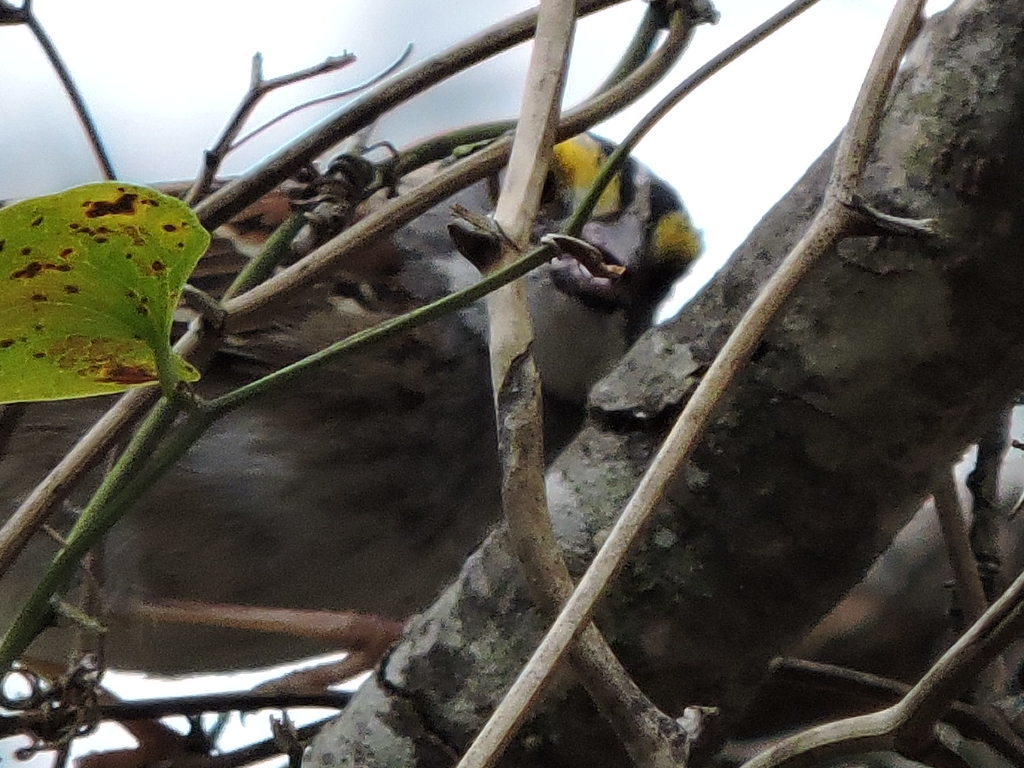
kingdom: Animalia
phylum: Chordata
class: Aves
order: Passeriformes
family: Passerellidae
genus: Zonotrichia
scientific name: Zonotrichia albicollis
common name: White-throated sparrow
